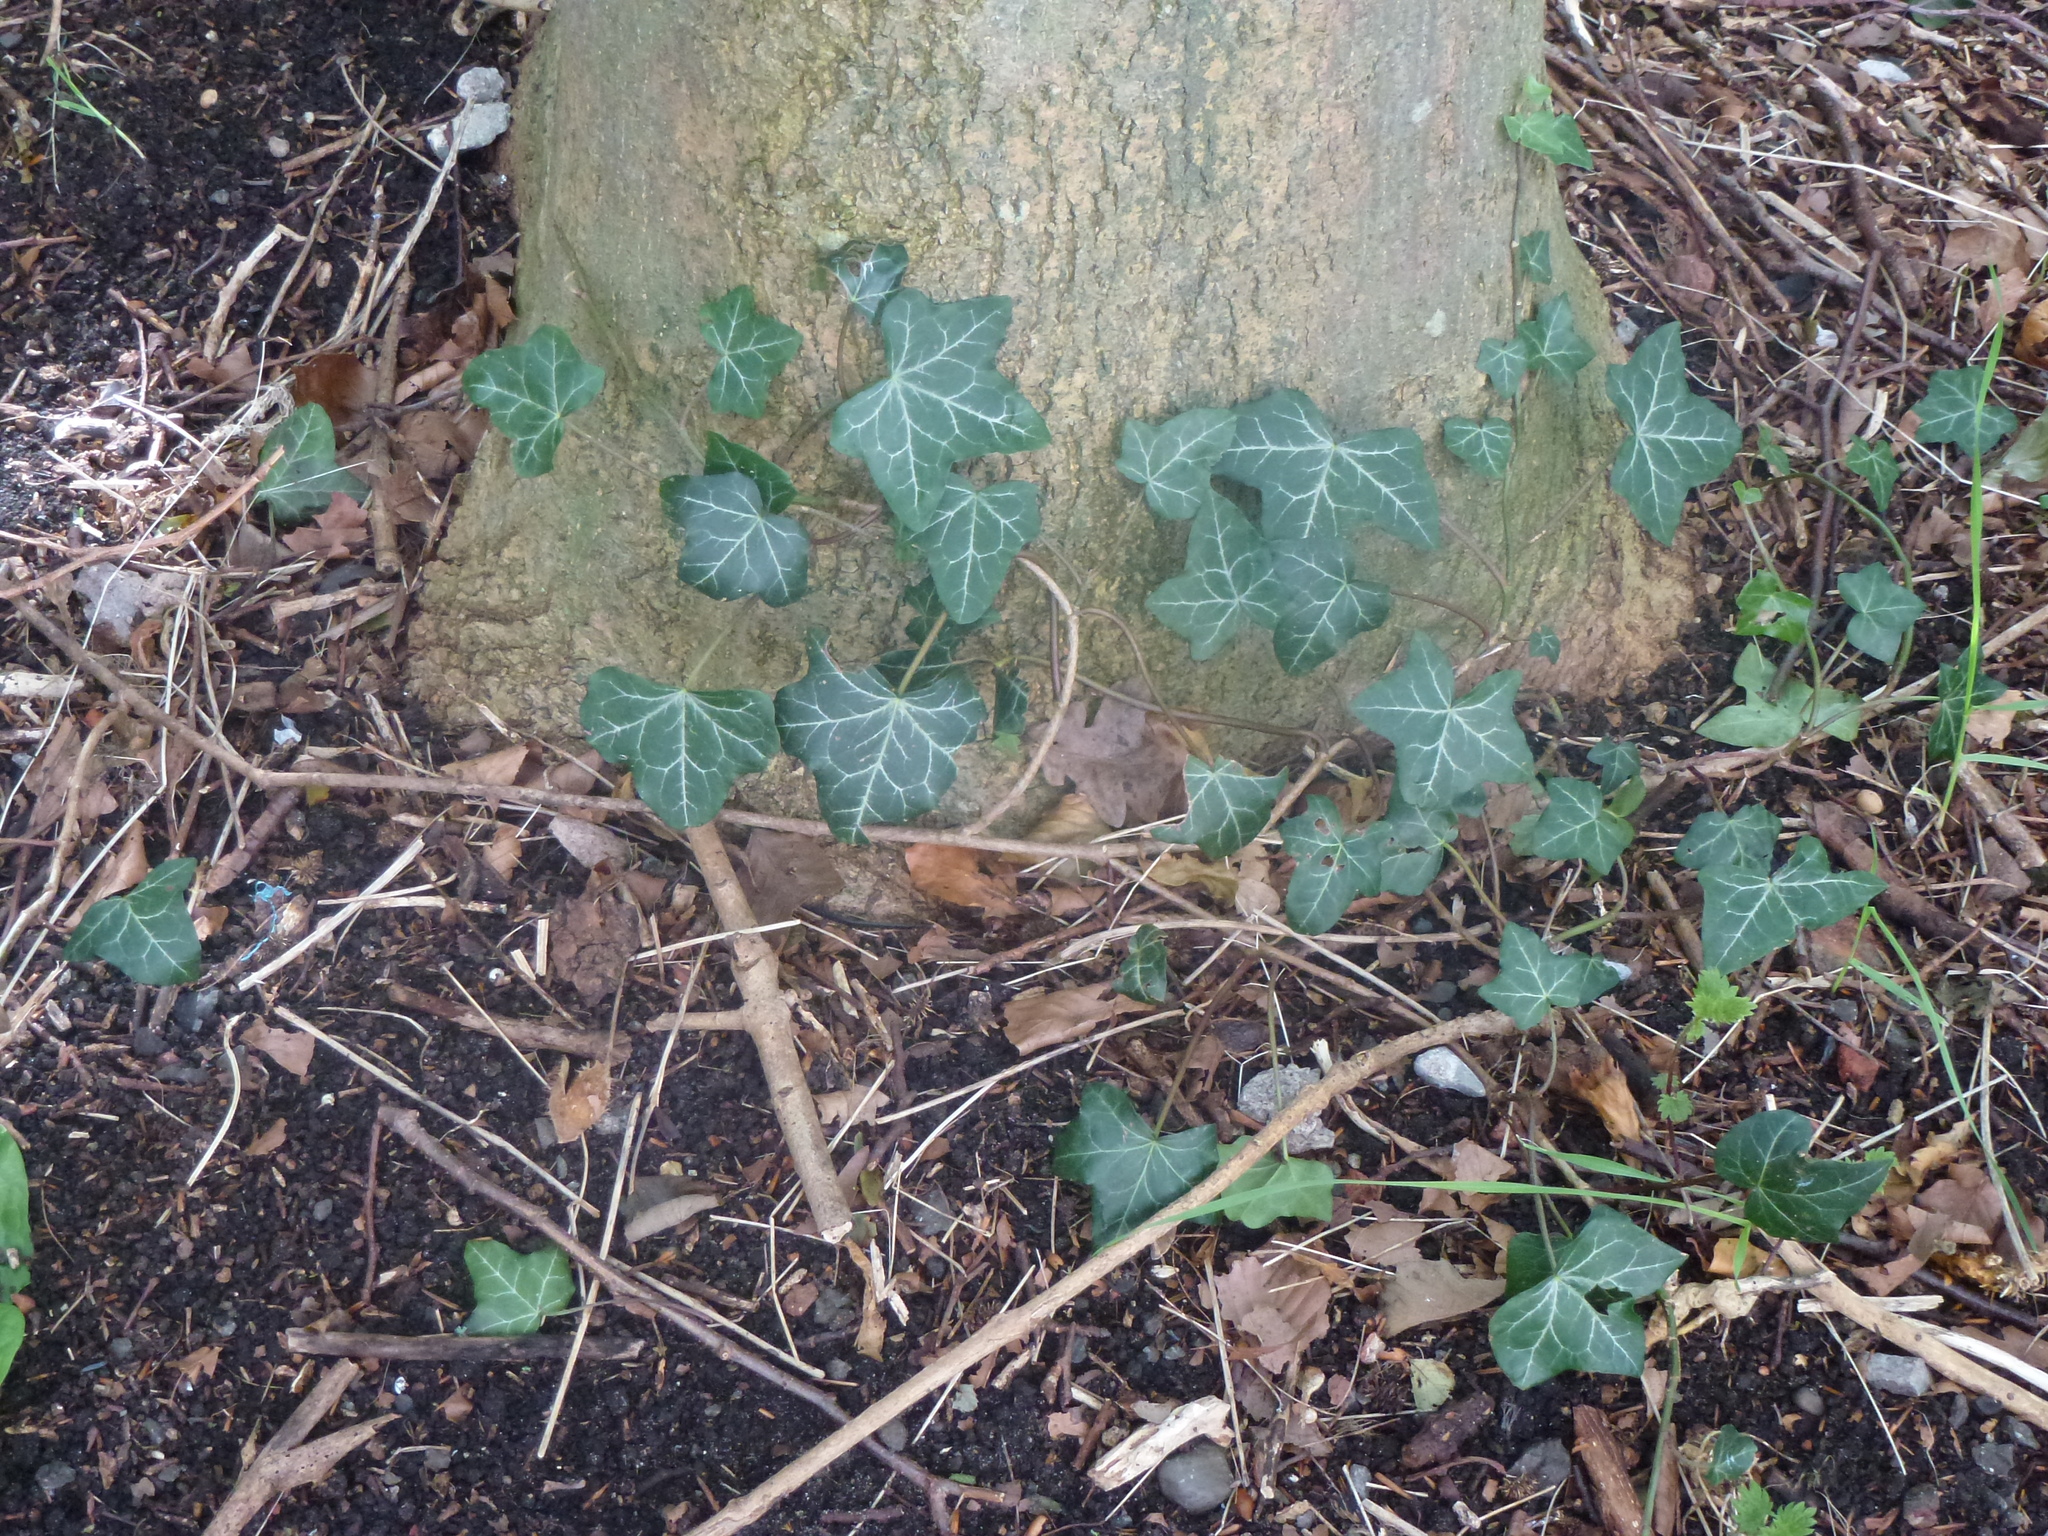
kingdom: Plantae
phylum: Tracheophyta
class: Magnoliopsida
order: Apiales
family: Araliaceae
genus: Hedera
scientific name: Hedera helix
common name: Ivy
